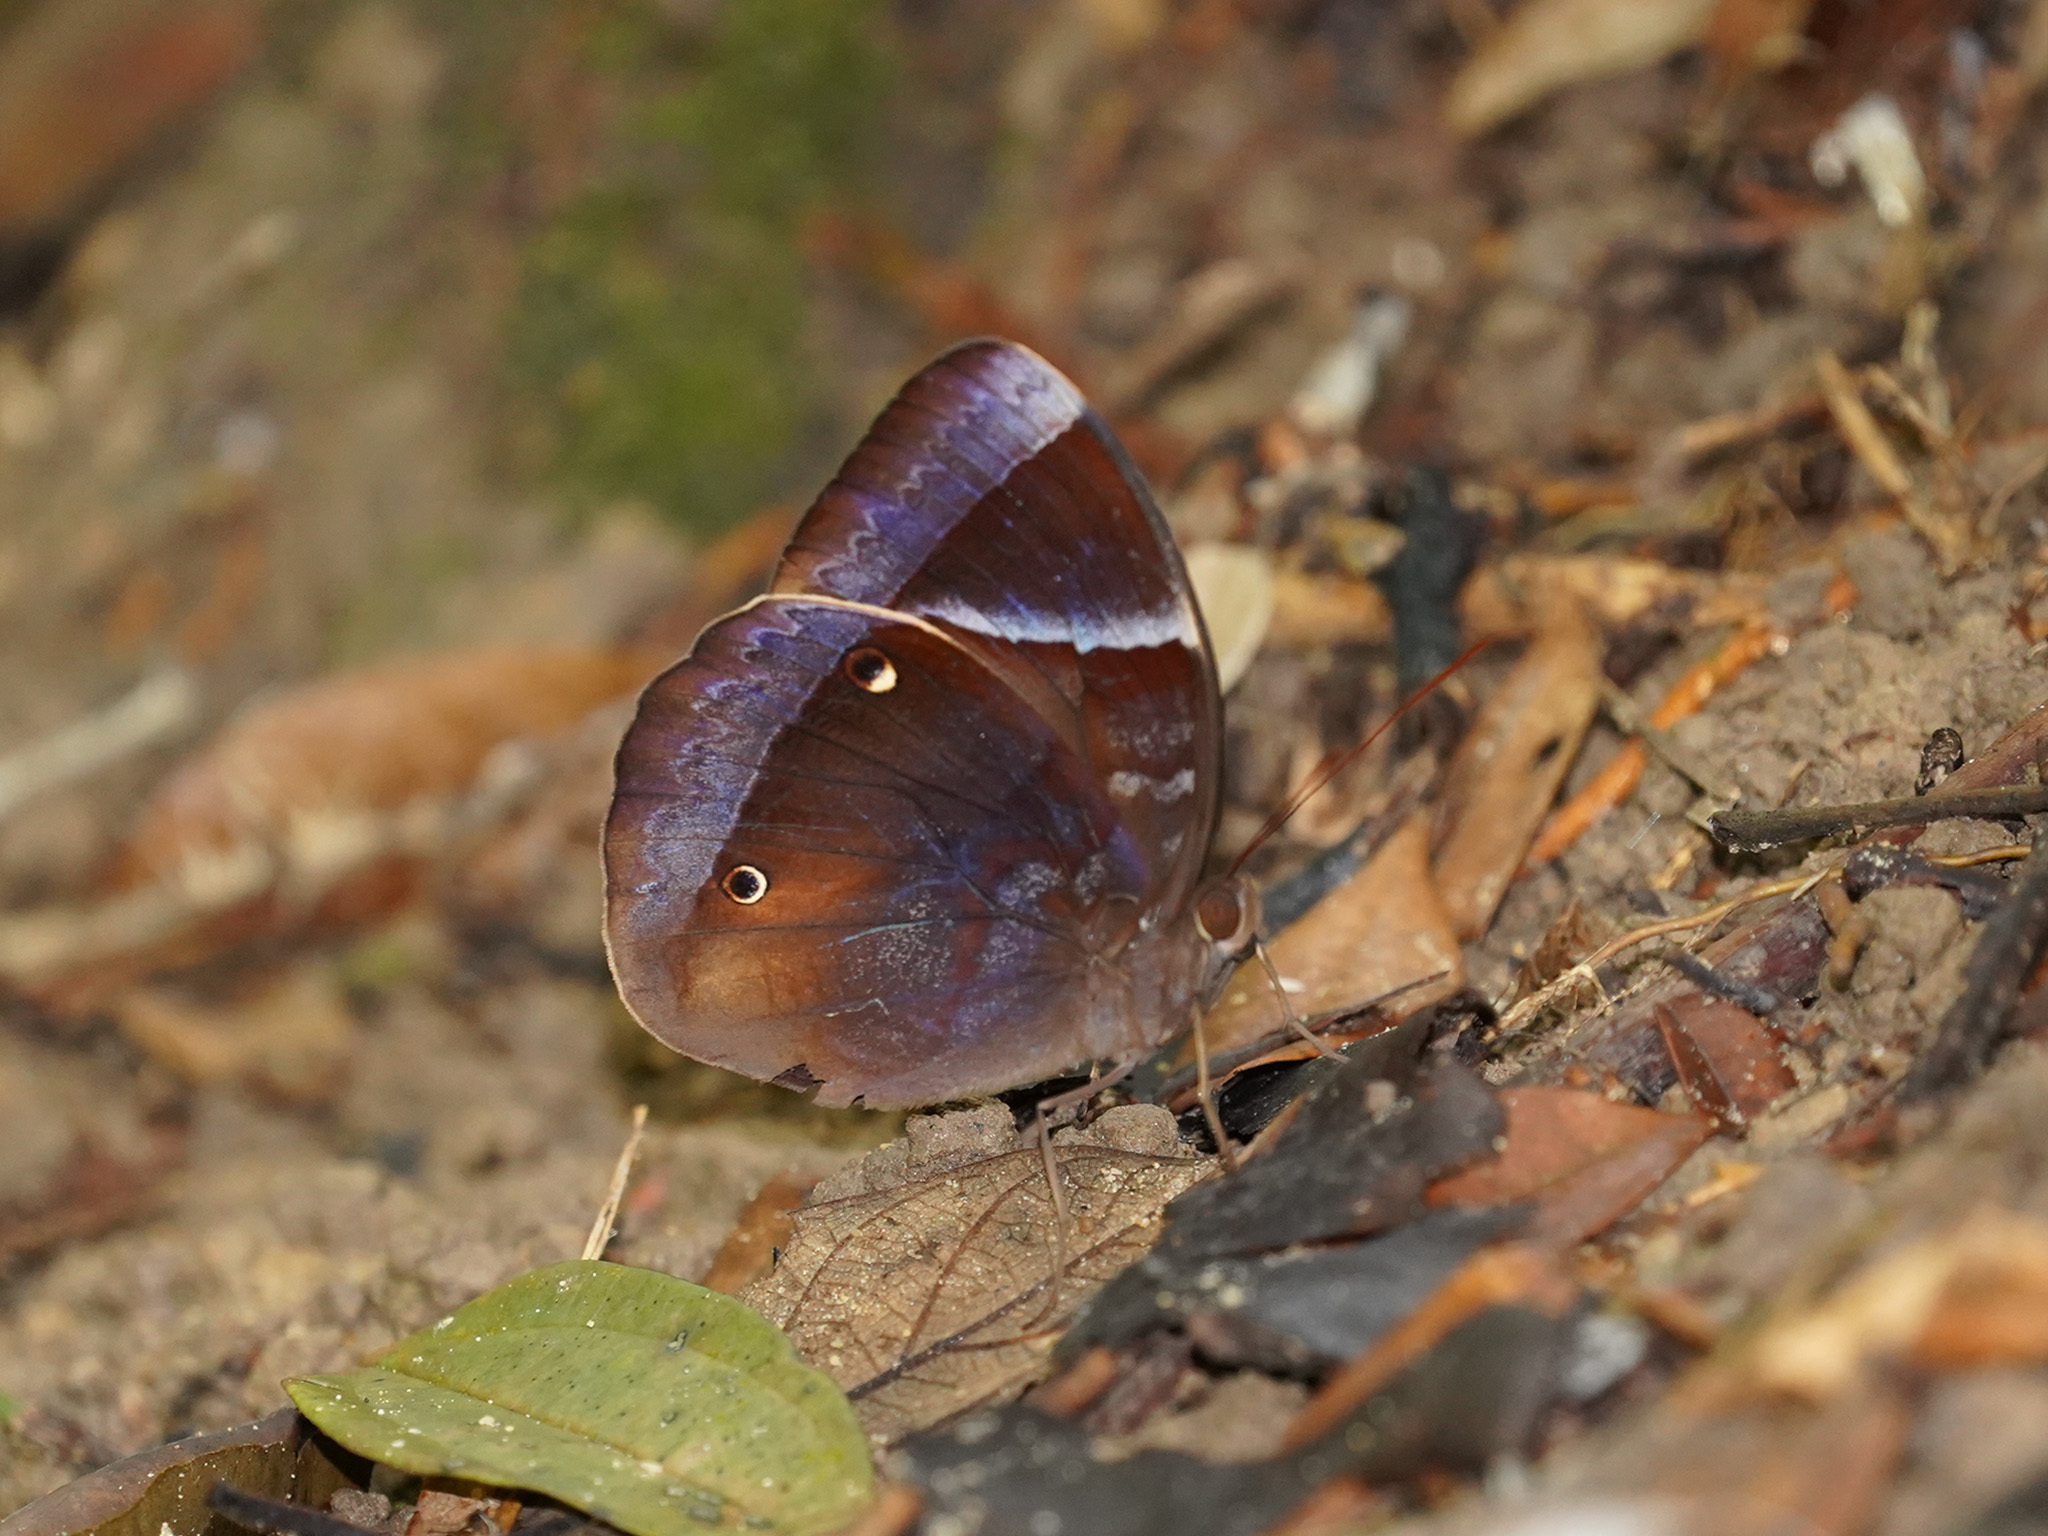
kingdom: Animalia
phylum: Arthropoda
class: Insecta
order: Lepidoptera
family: Nymphalidae
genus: Thaumantis
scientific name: Thaumantis klugius
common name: Dark blue jungle glory
